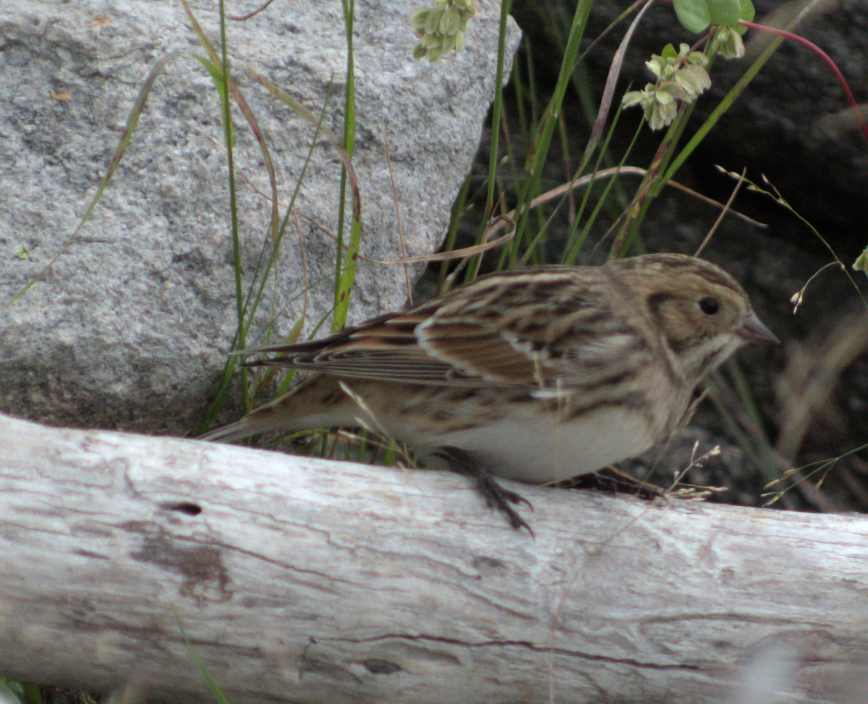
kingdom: Animalia
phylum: Chordata
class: Aves
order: Passeriformes
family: Calcariidae
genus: Calcarius
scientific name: Calcarius lapponicus
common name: Lapland longspur
